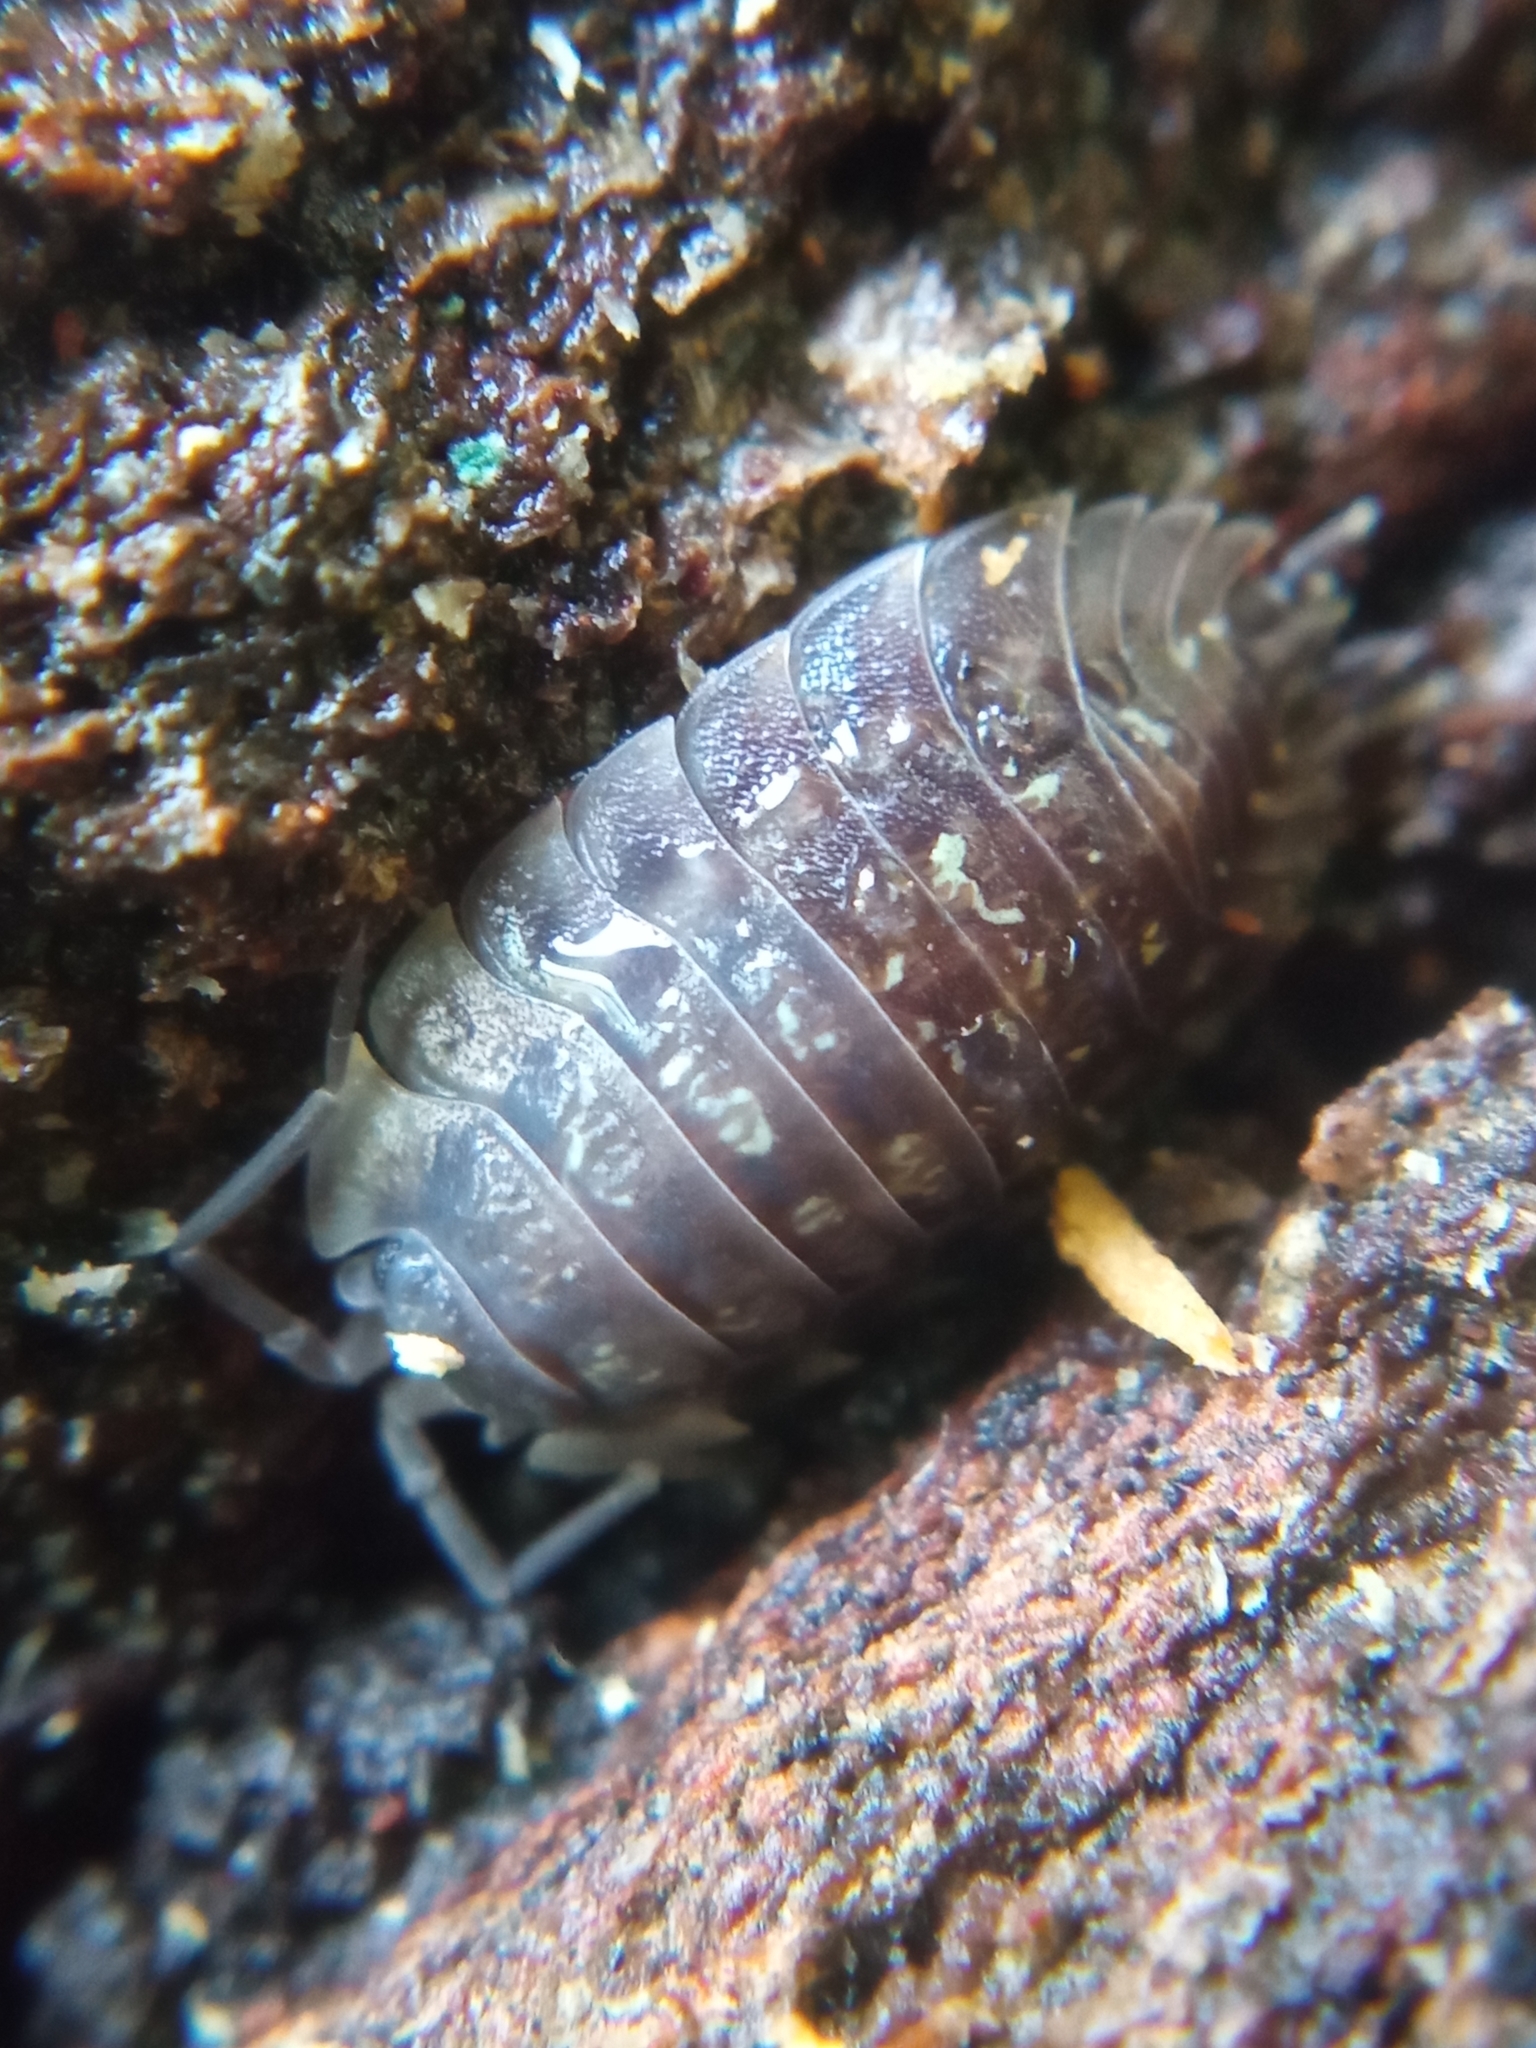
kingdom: Animalia
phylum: Arthropoda
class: Malacostraca
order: Isopoda
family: Oniscidae
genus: Oniscus
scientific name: Oniscus asellus
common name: Common shiny woodlouse
